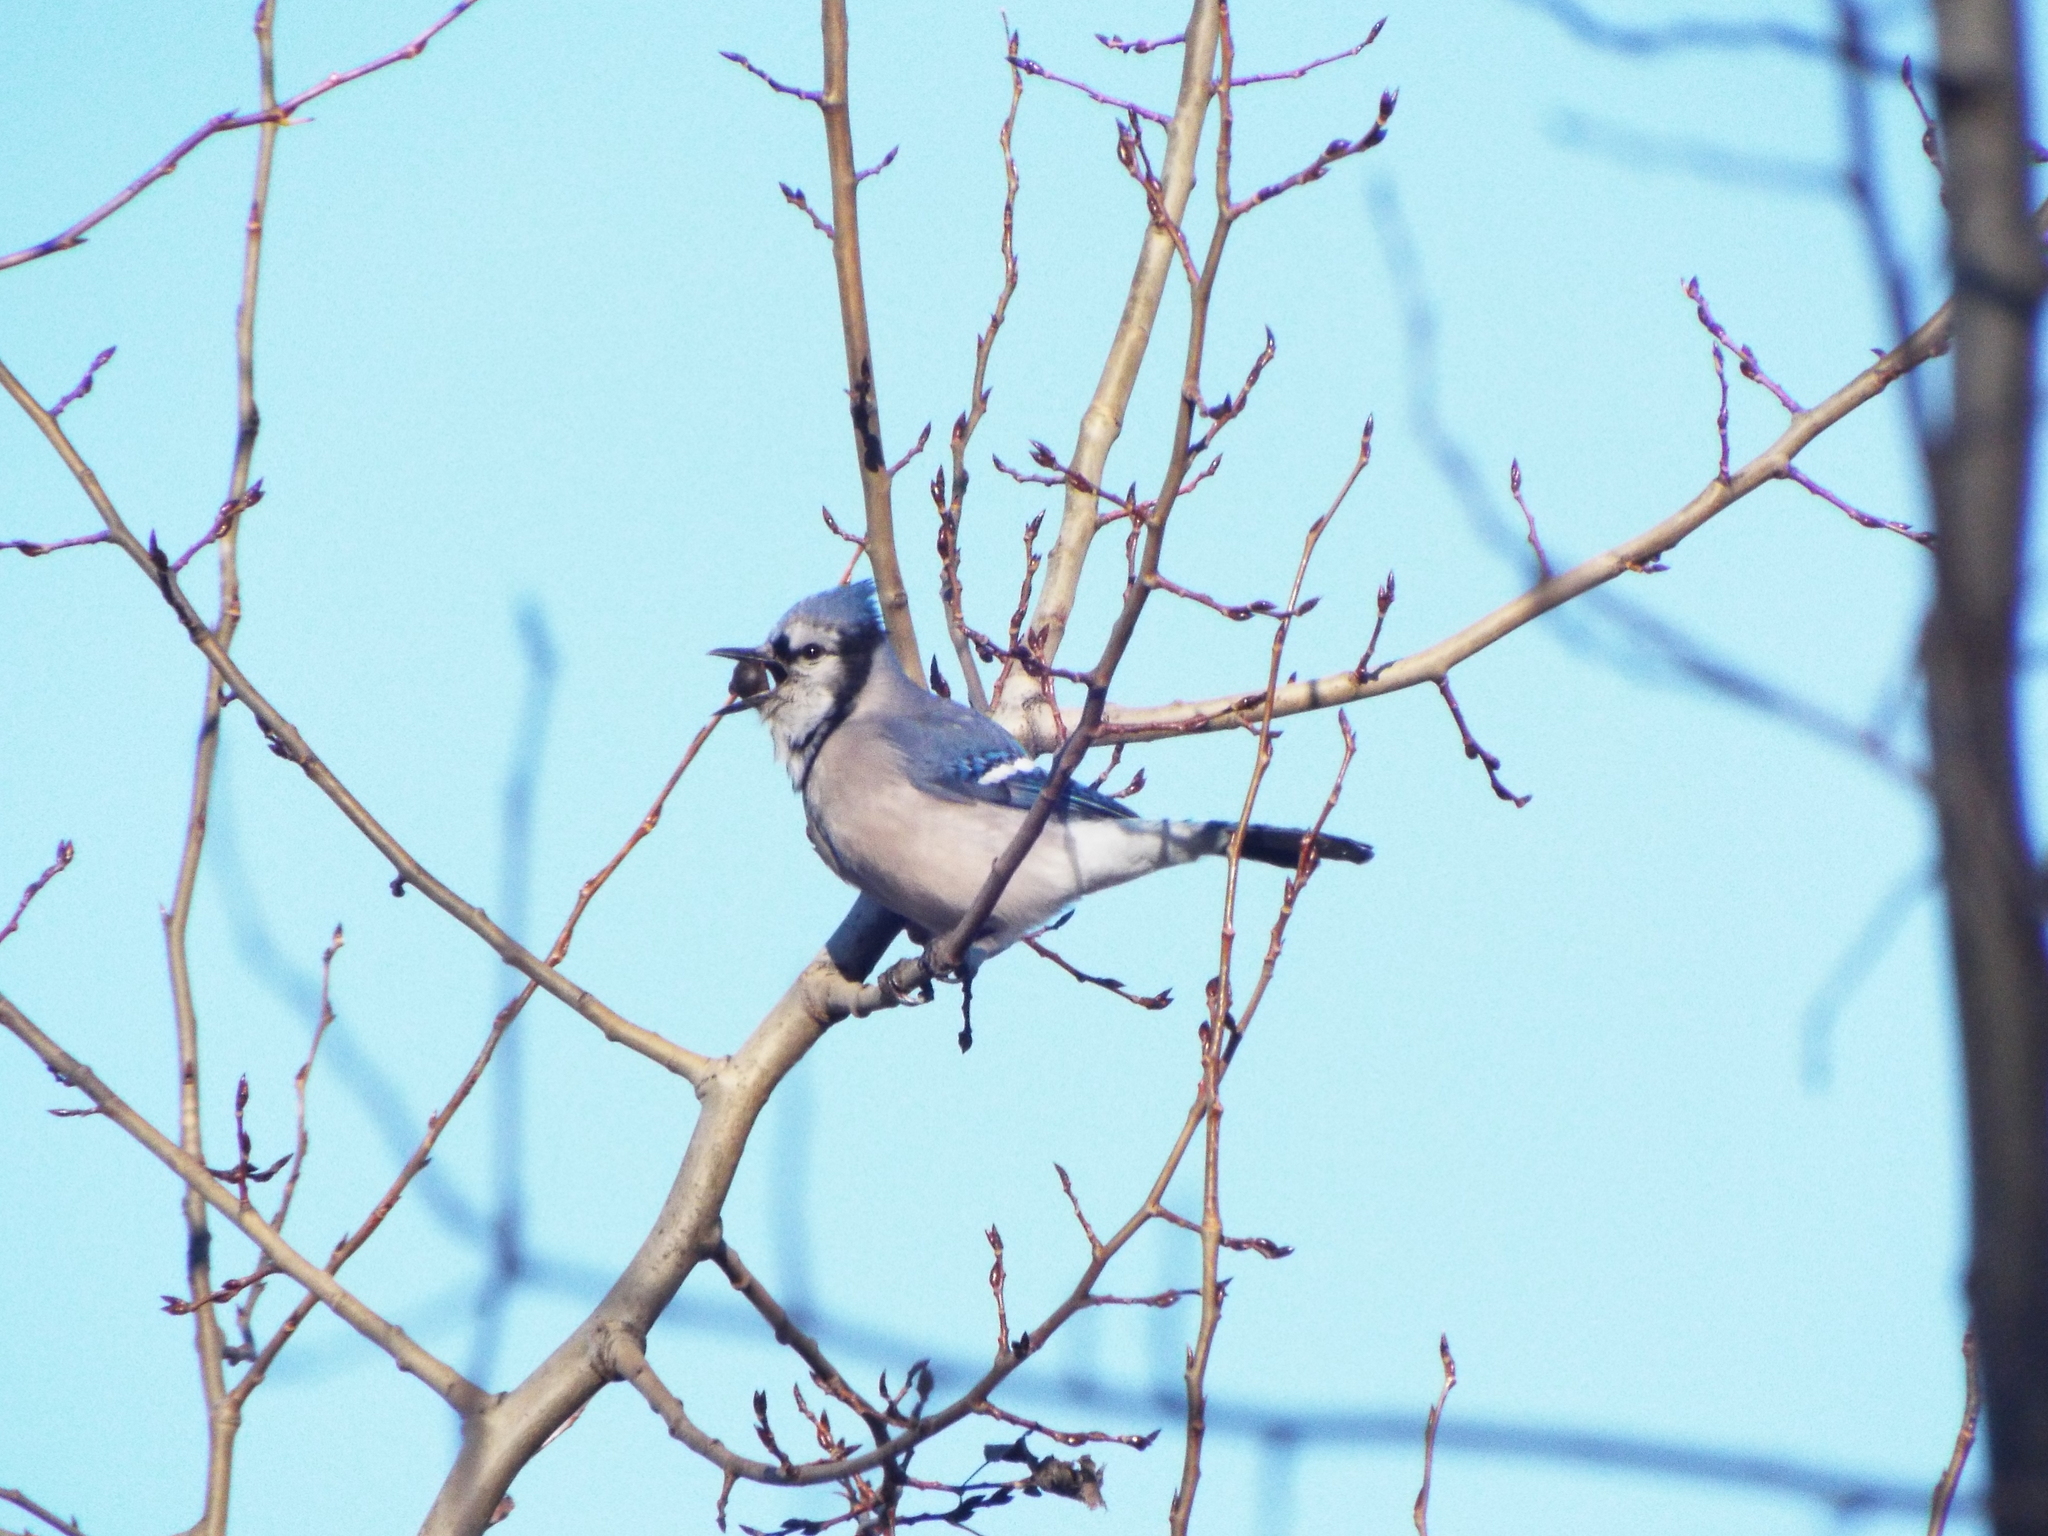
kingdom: Animalia
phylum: Chordata
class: Aves
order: Passeriformes
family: Corvidae
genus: Cyanocitta
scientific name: Cyanocitta cristata
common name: Blue jay
